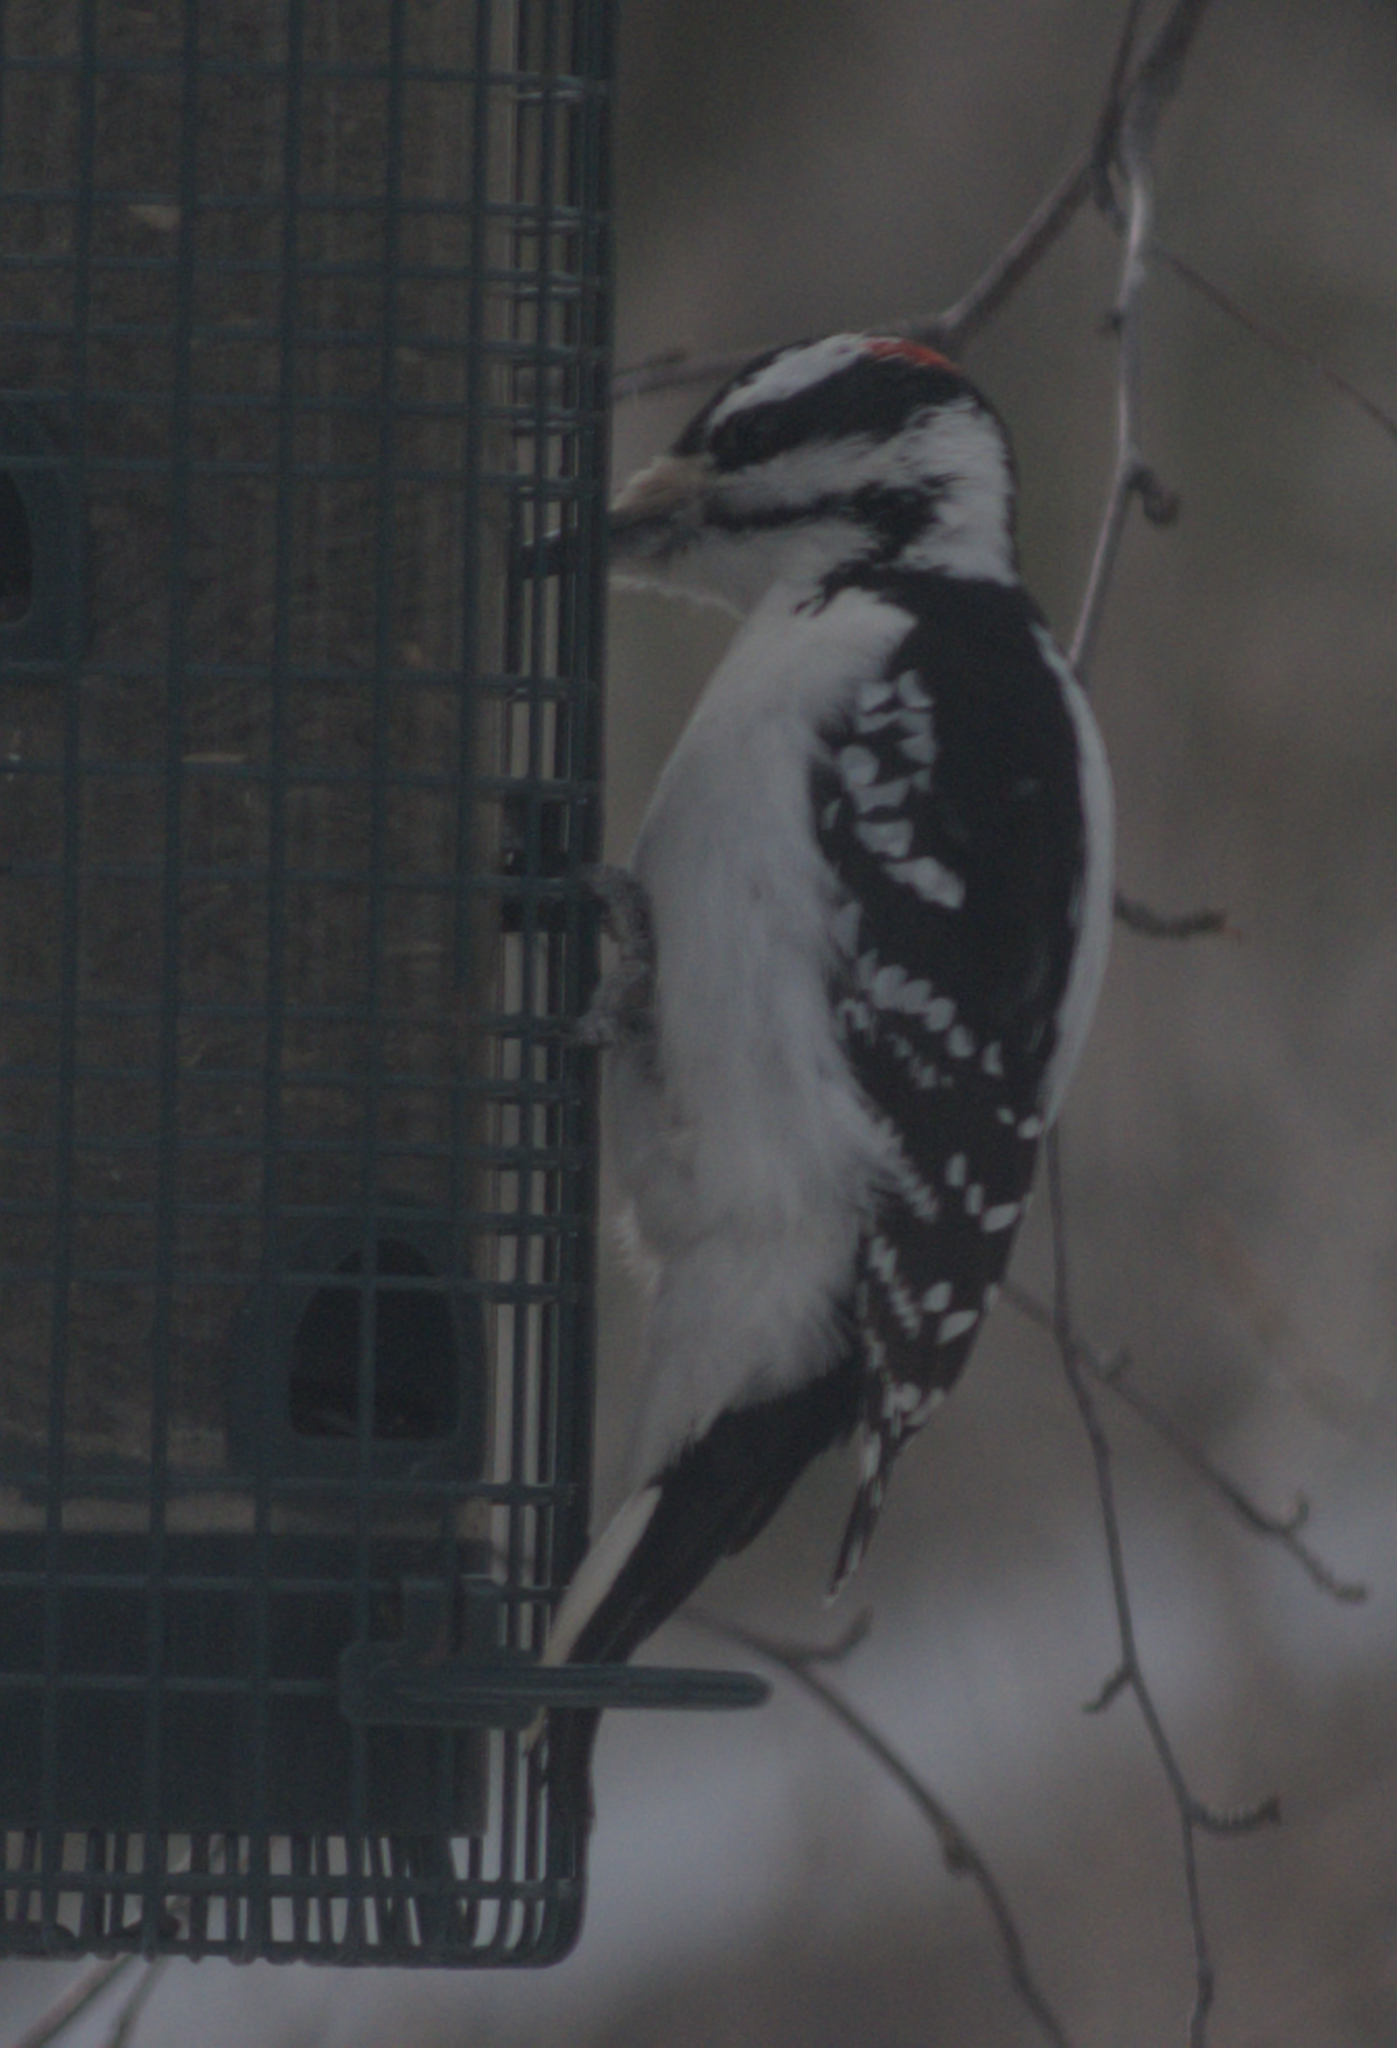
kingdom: Animalia
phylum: Chordata
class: Aves
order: Piciformes
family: Picidae
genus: Leuconotopicus
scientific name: Leuconotopicus villosus
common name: Hairy woodpecker
